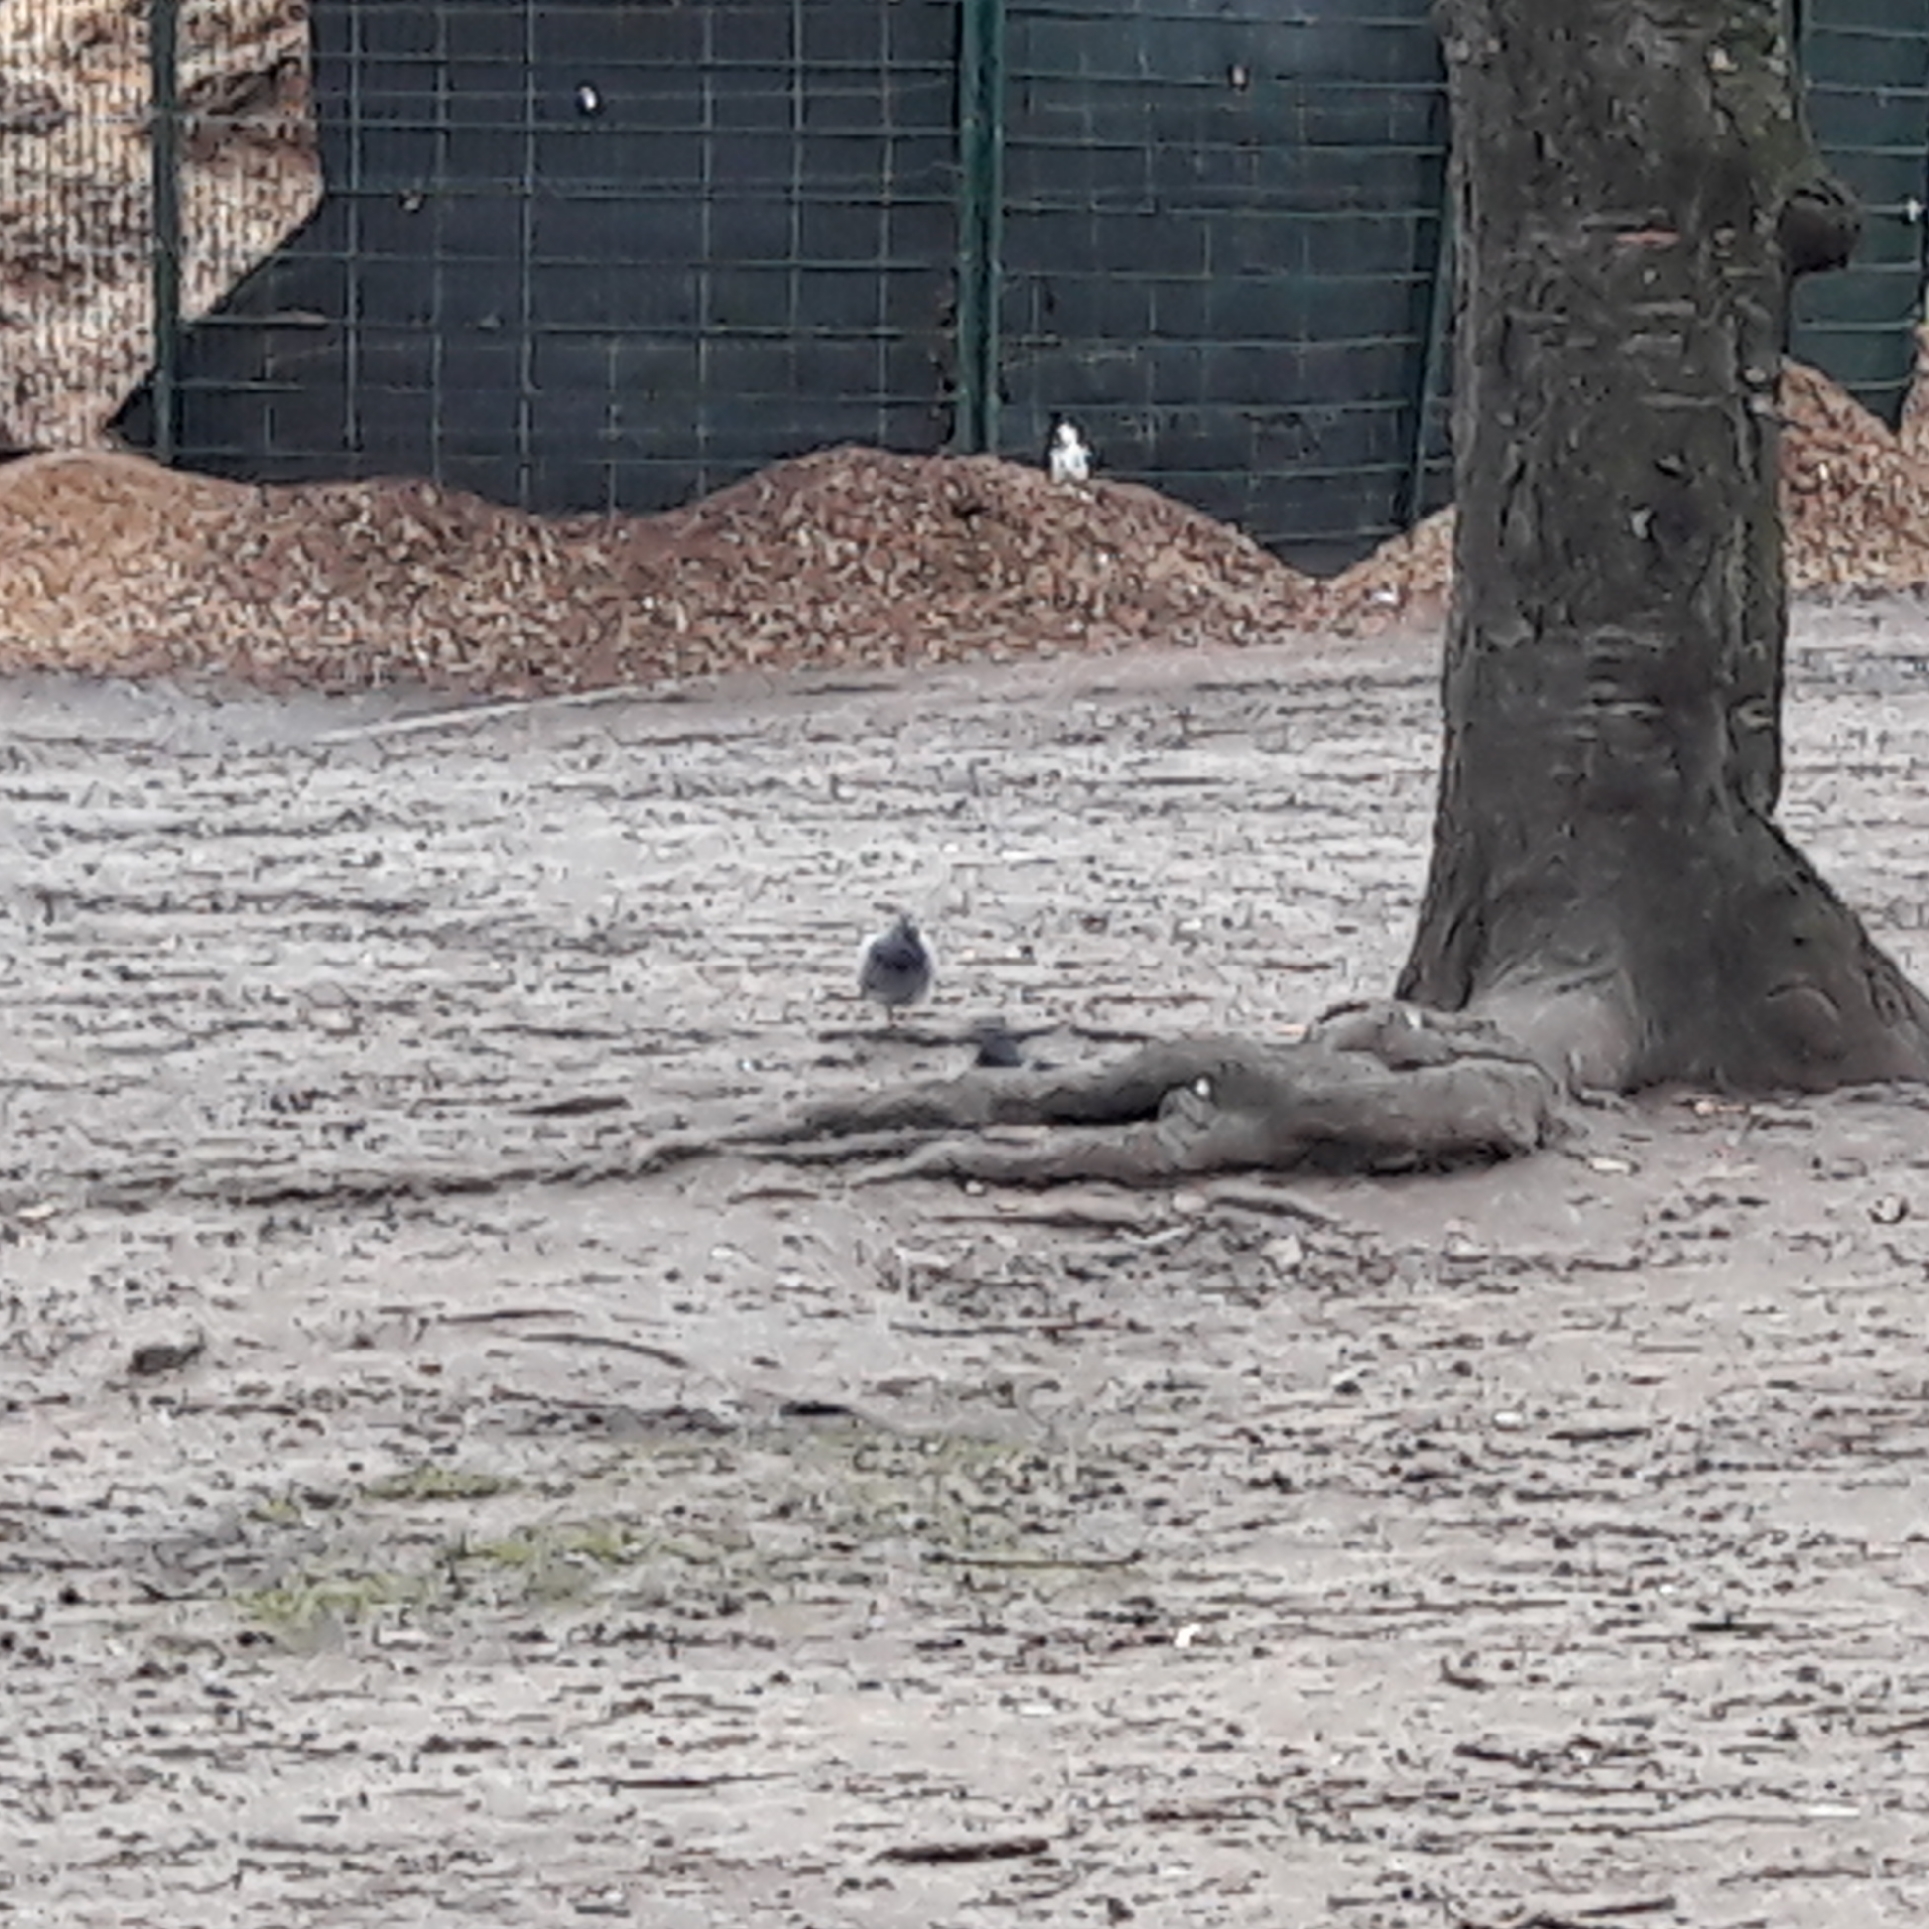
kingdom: Animalia
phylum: Chordata
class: Aves
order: Columbiformes
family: Columbidae
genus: Columba
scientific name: Columba livia
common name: Rock pigeon
